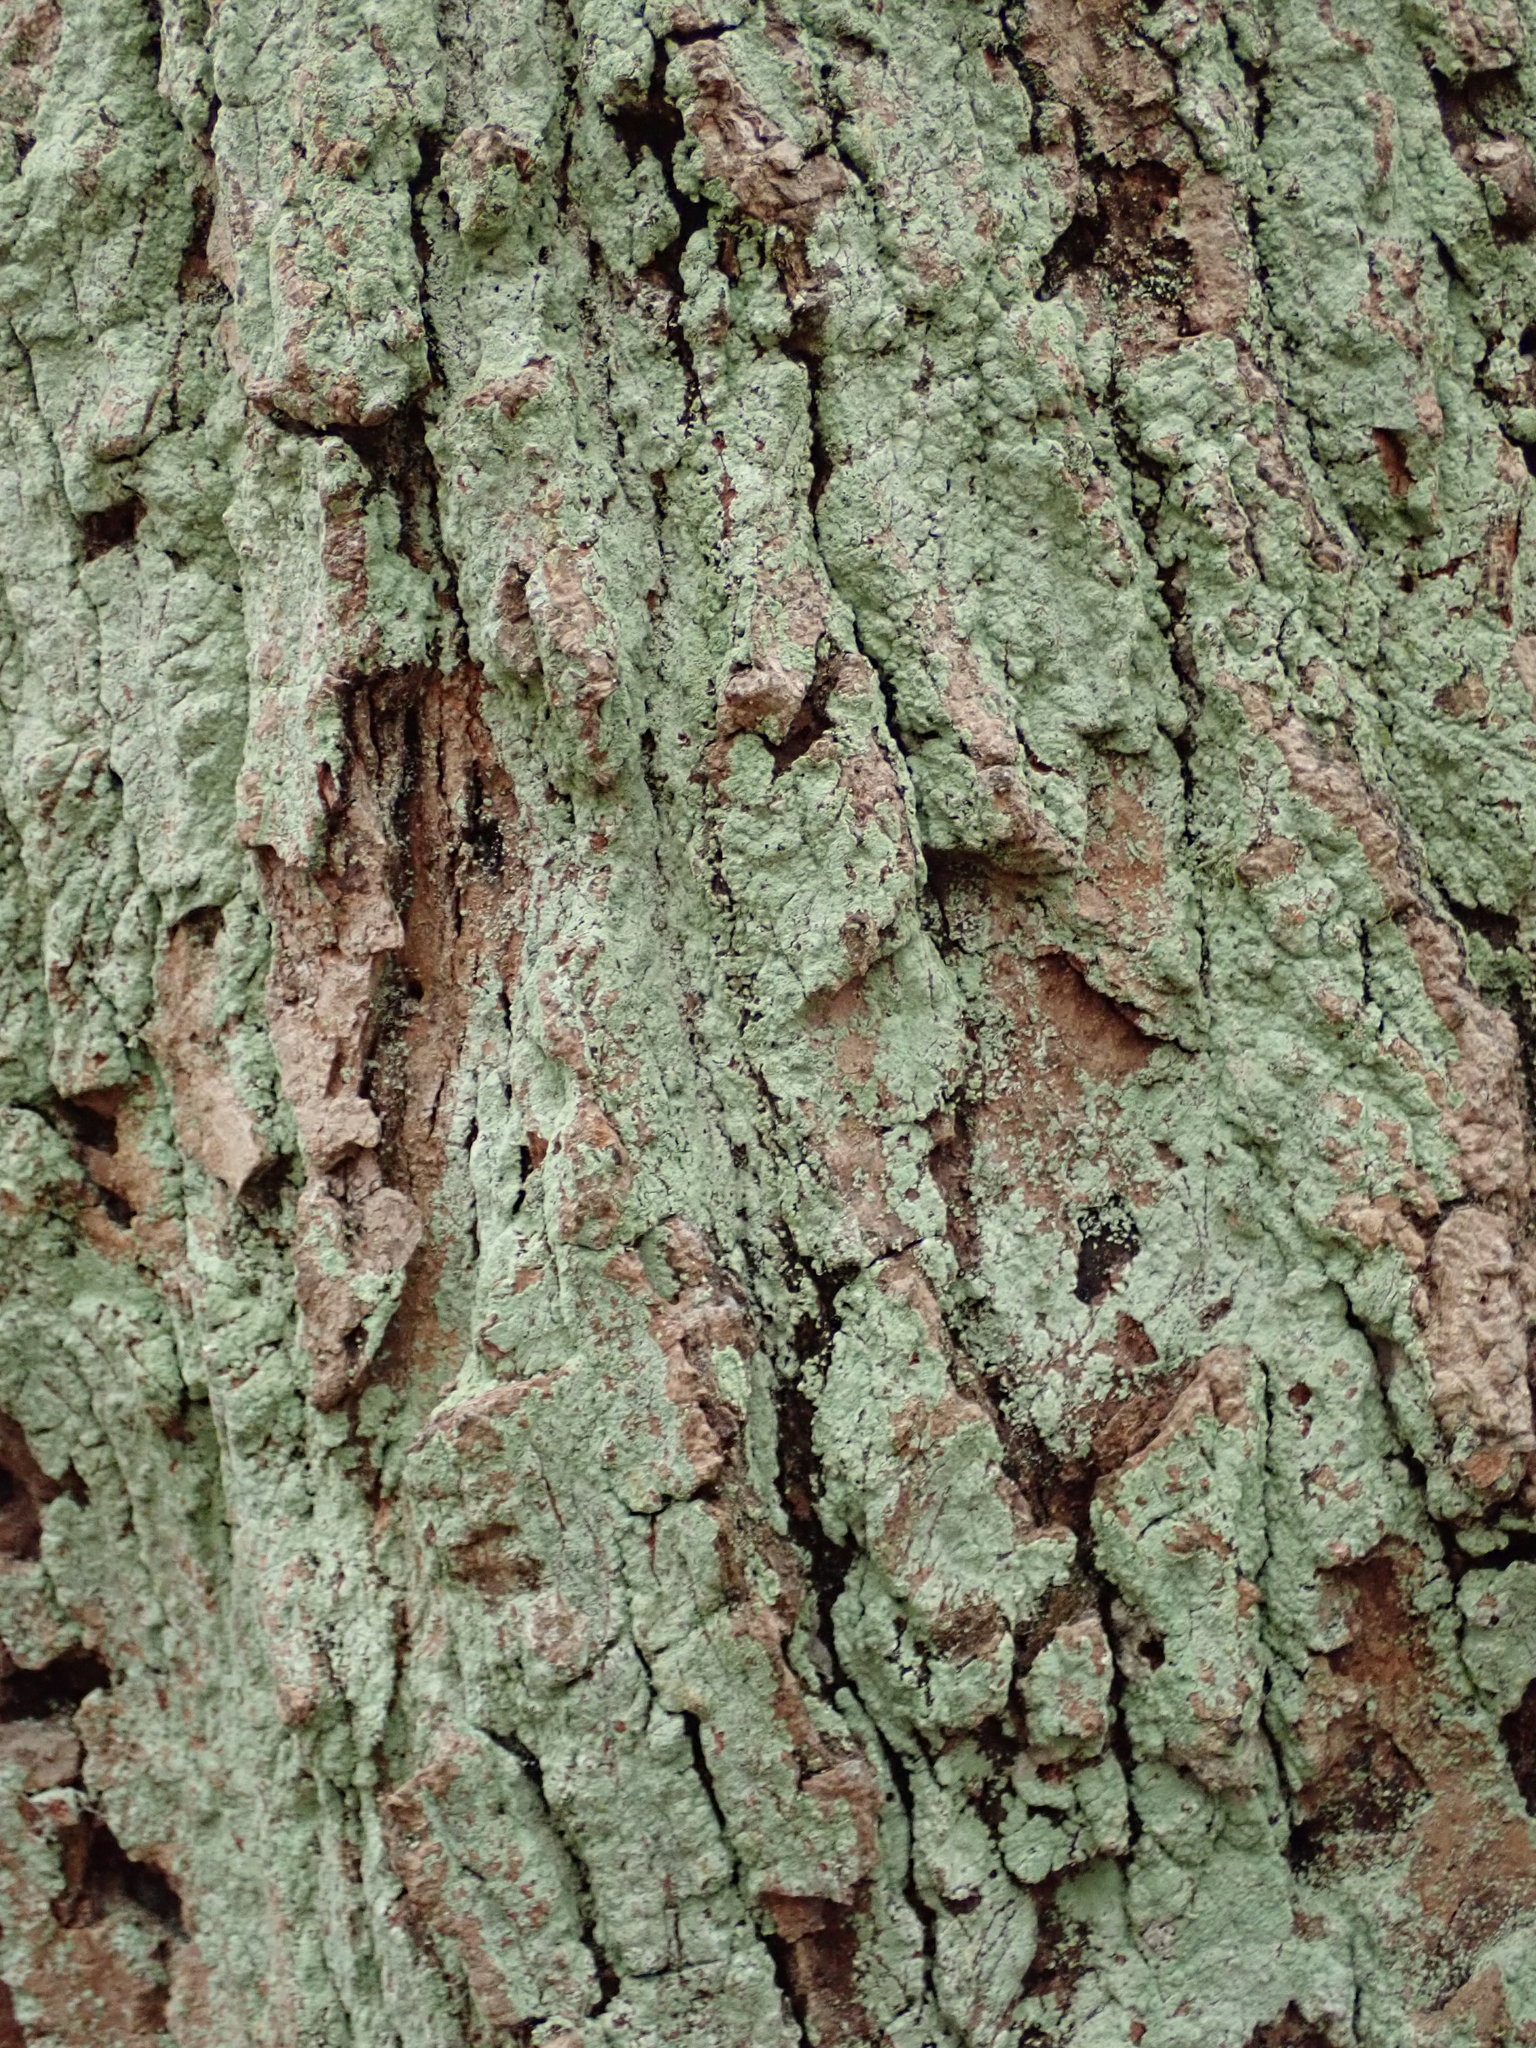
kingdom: Fungi
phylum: Ascomycota
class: Lecanoromycetes
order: Lecanorales
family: Stereocaulaceae
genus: Lepraria
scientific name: Lepraria lobificans
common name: Fluffy dust lichen
